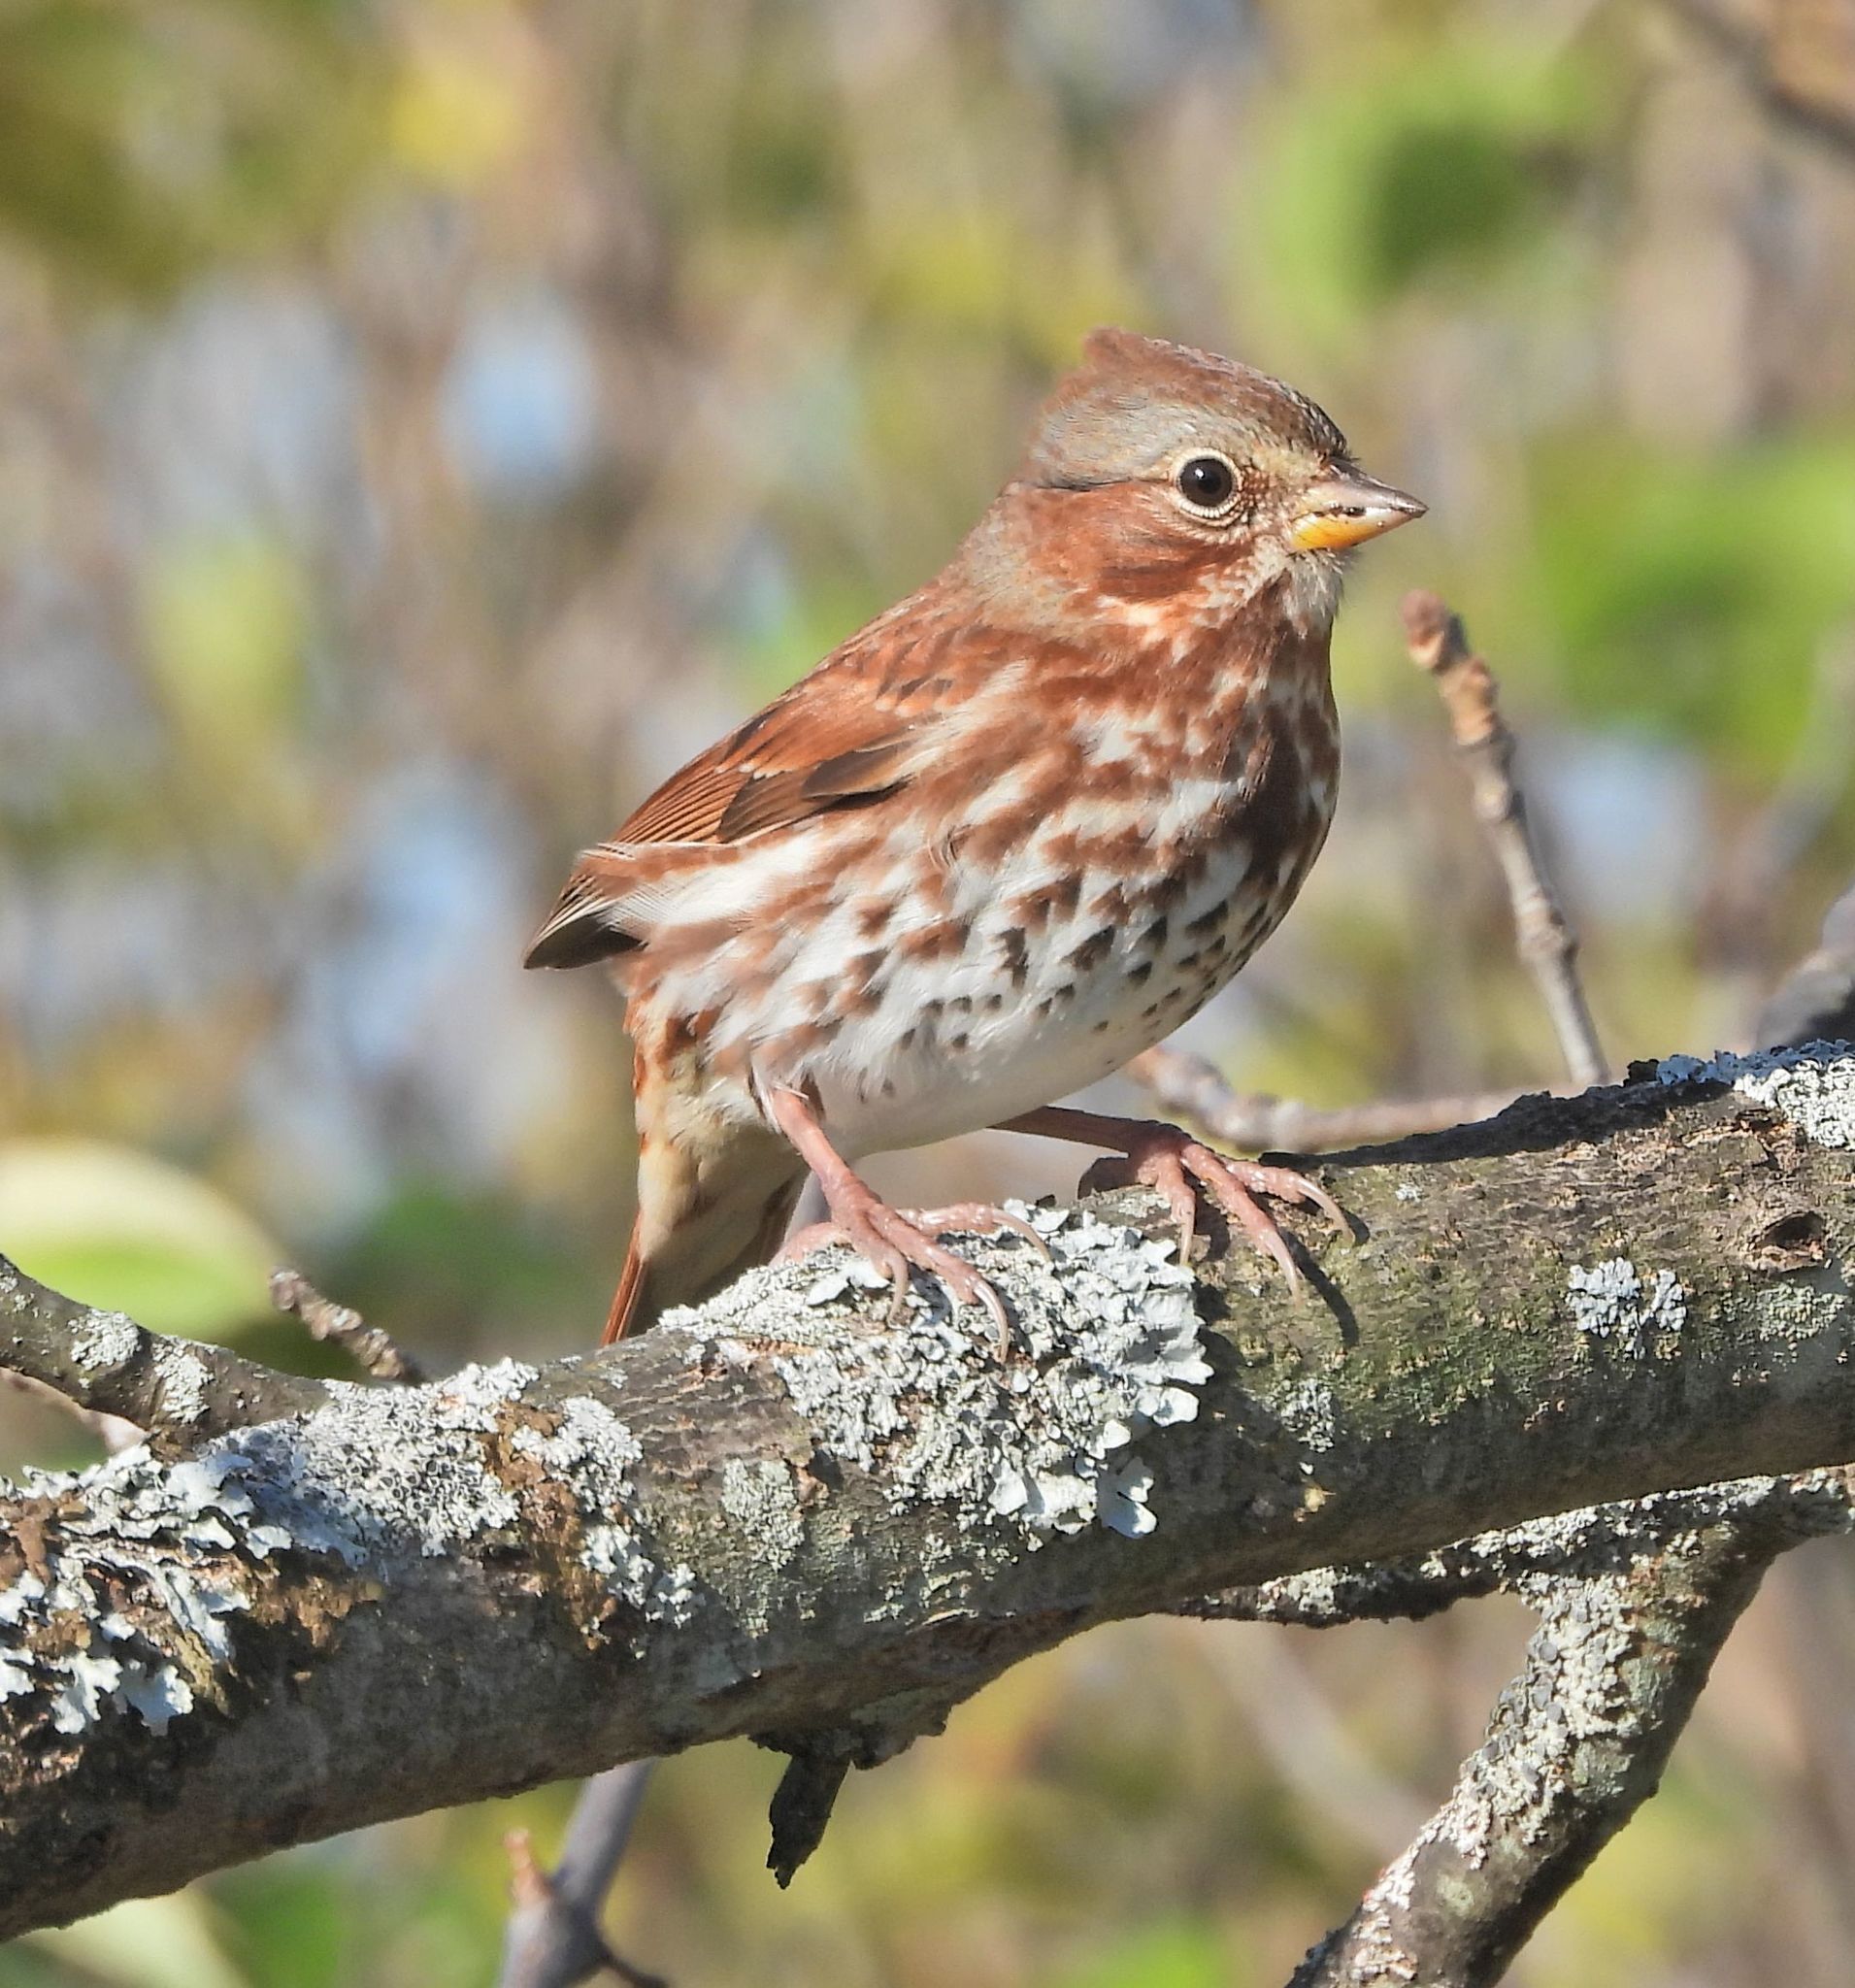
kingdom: Animalia
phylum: Chordata
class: Aves
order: Passeriformes
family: Passerellidae
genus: Passerella
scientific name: Passerella iliaca
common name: Fox sparrow
